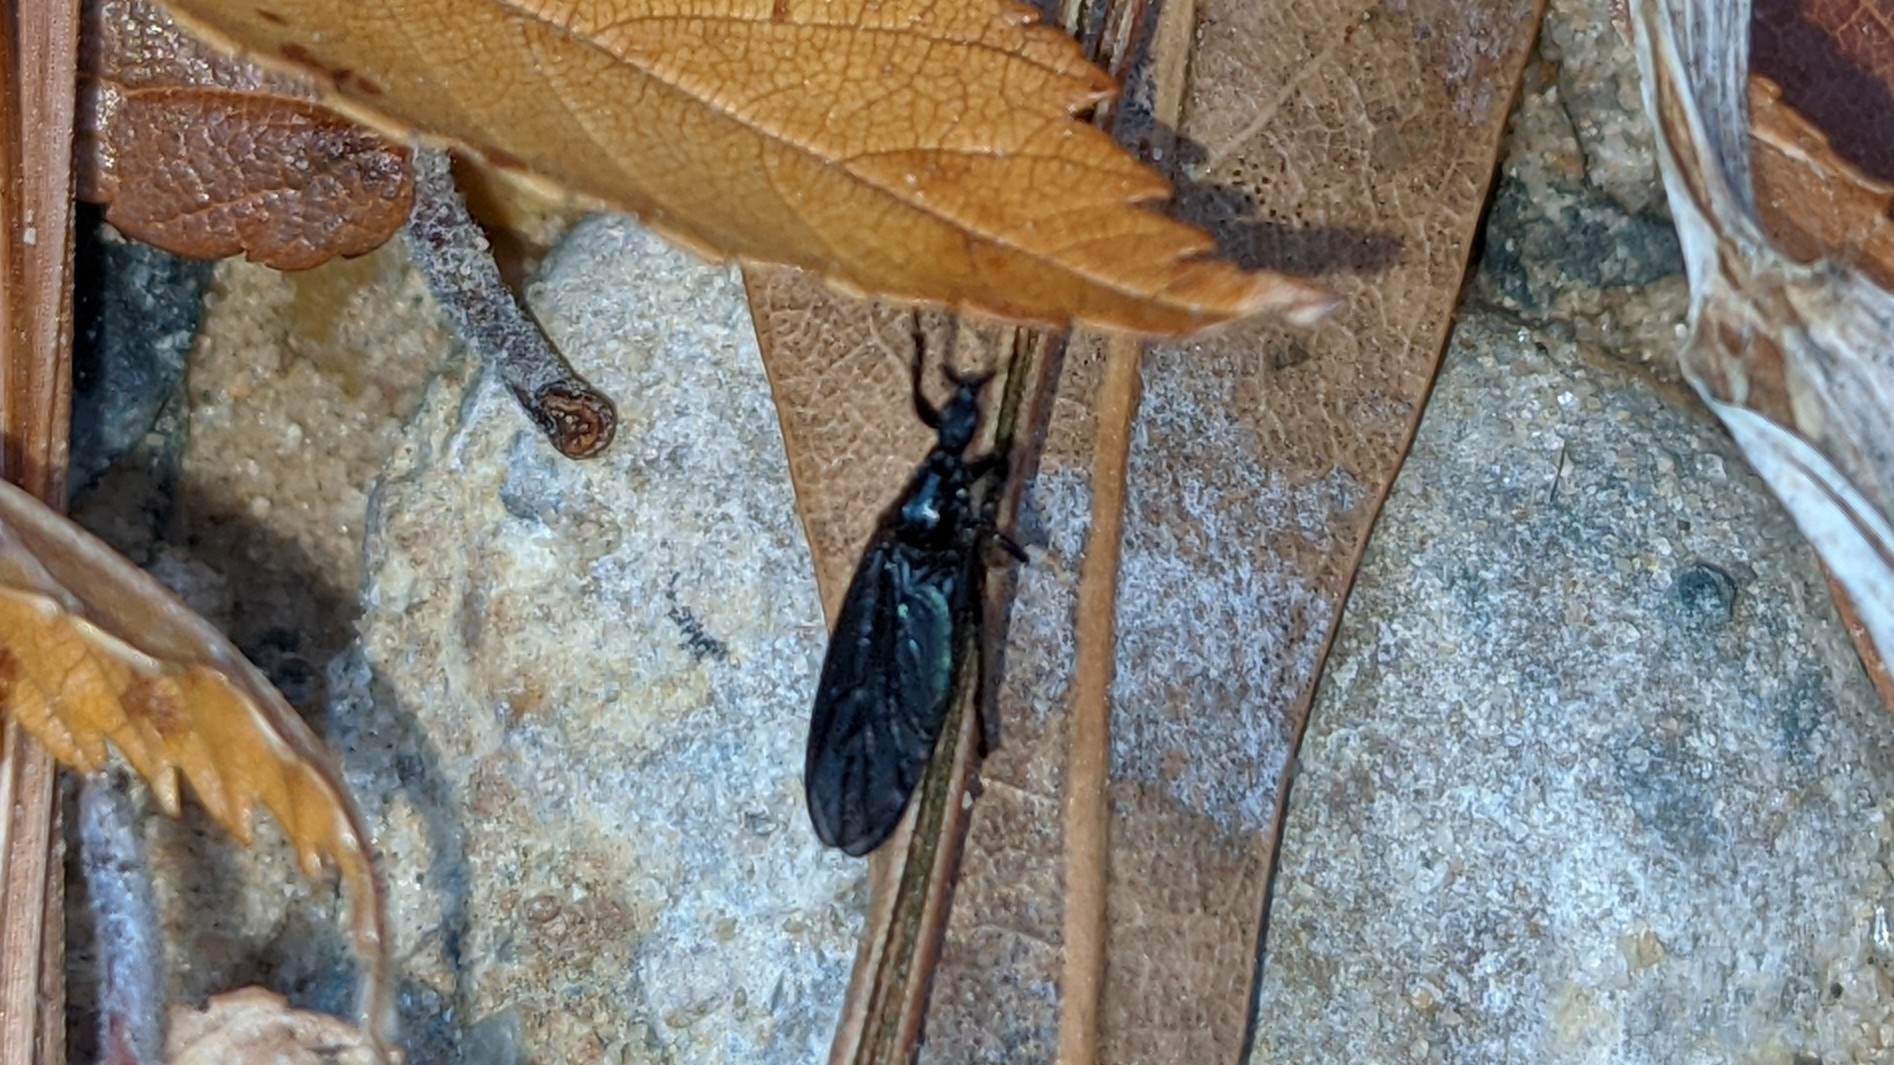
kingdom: Animalia
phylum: Arthropoda
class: Insecta
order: Diptera
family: Bibionidae
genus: Dilophus
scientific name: Dilophus orbatus
